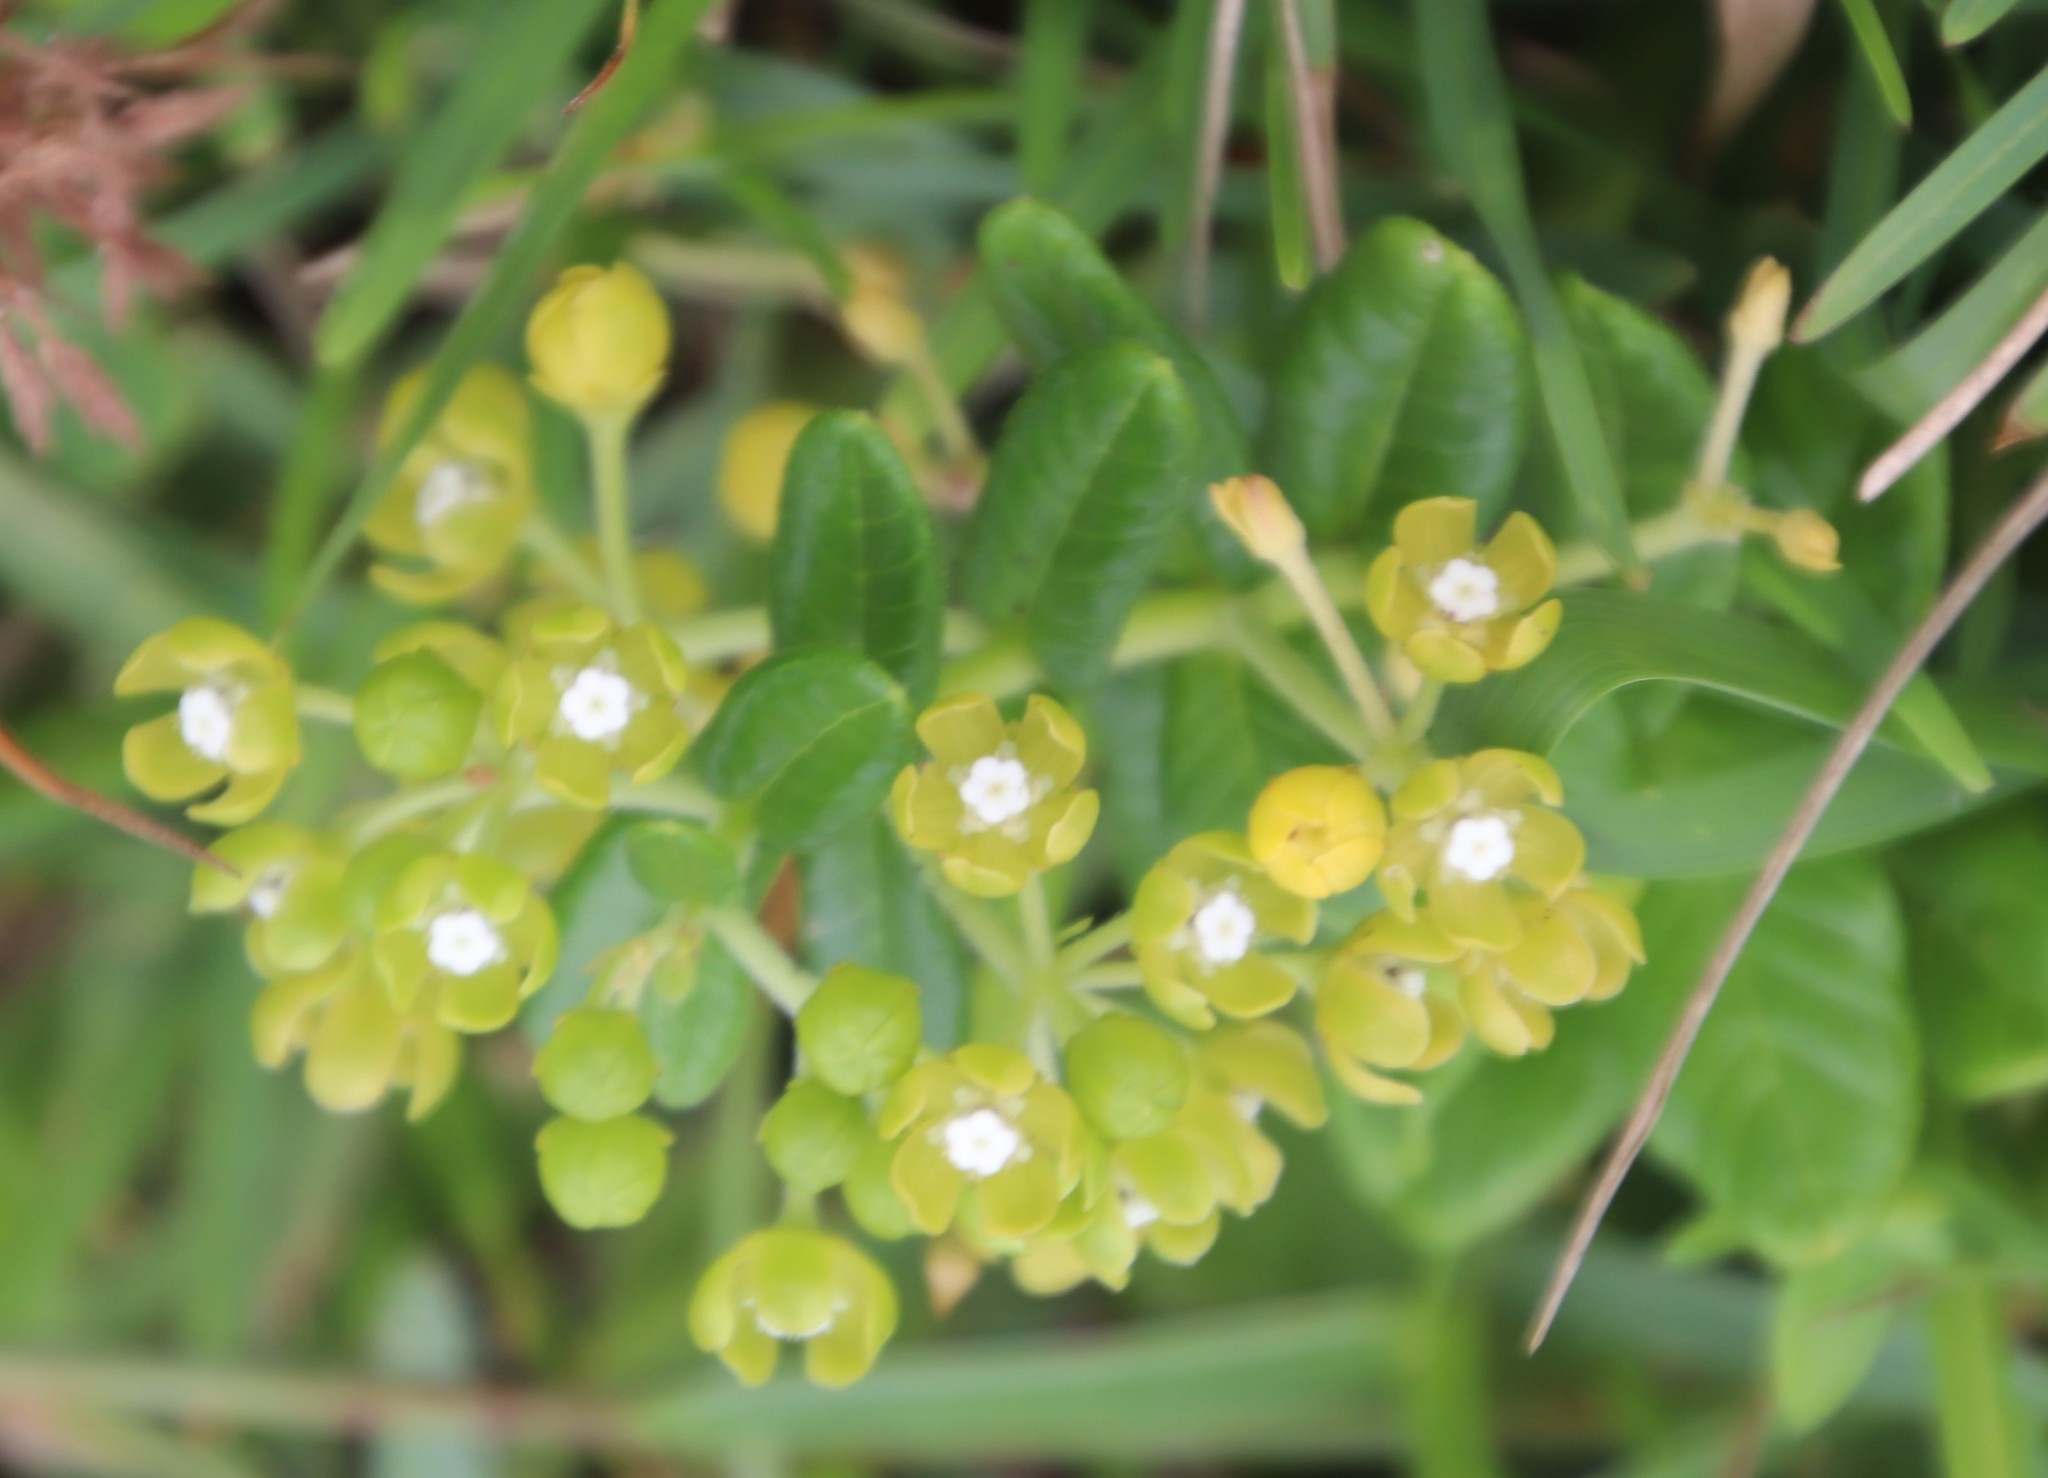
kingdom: Plantae
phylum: Tracheophyta
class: Magnoliopsida
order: Gentianales
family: Apocynaceae
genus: Schizoglossum
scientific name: Schizoglossum atropurpureum
